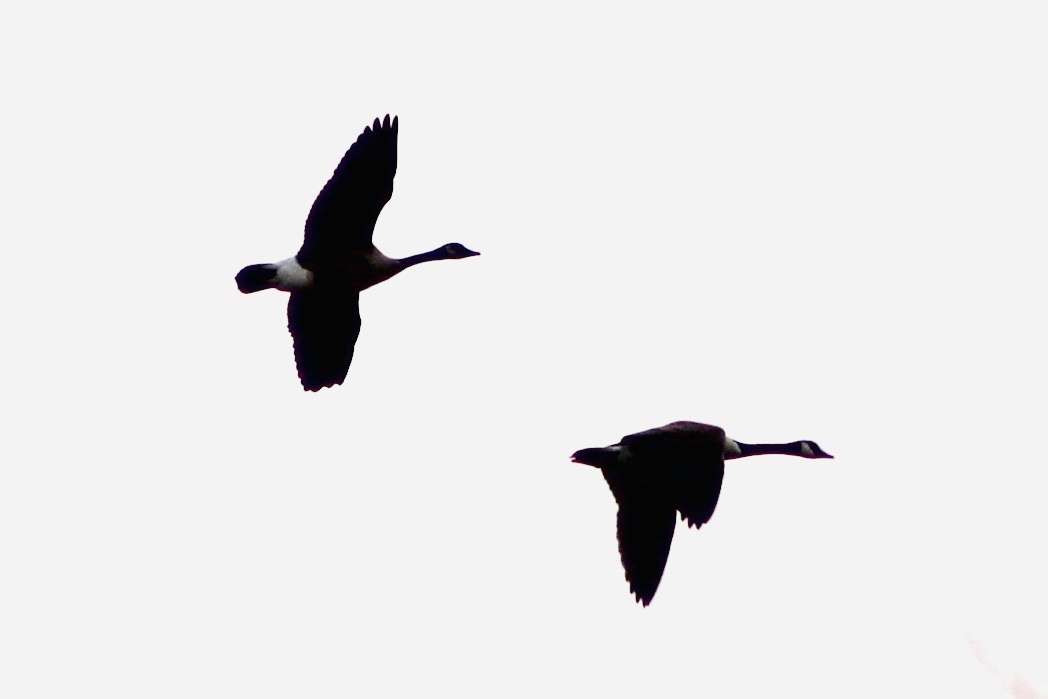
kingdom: Animalia
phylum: Chordata
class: Aves
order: Anseriformes
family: Anatidae
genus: Branta
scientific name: Branta canadensis
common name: Canada goose
